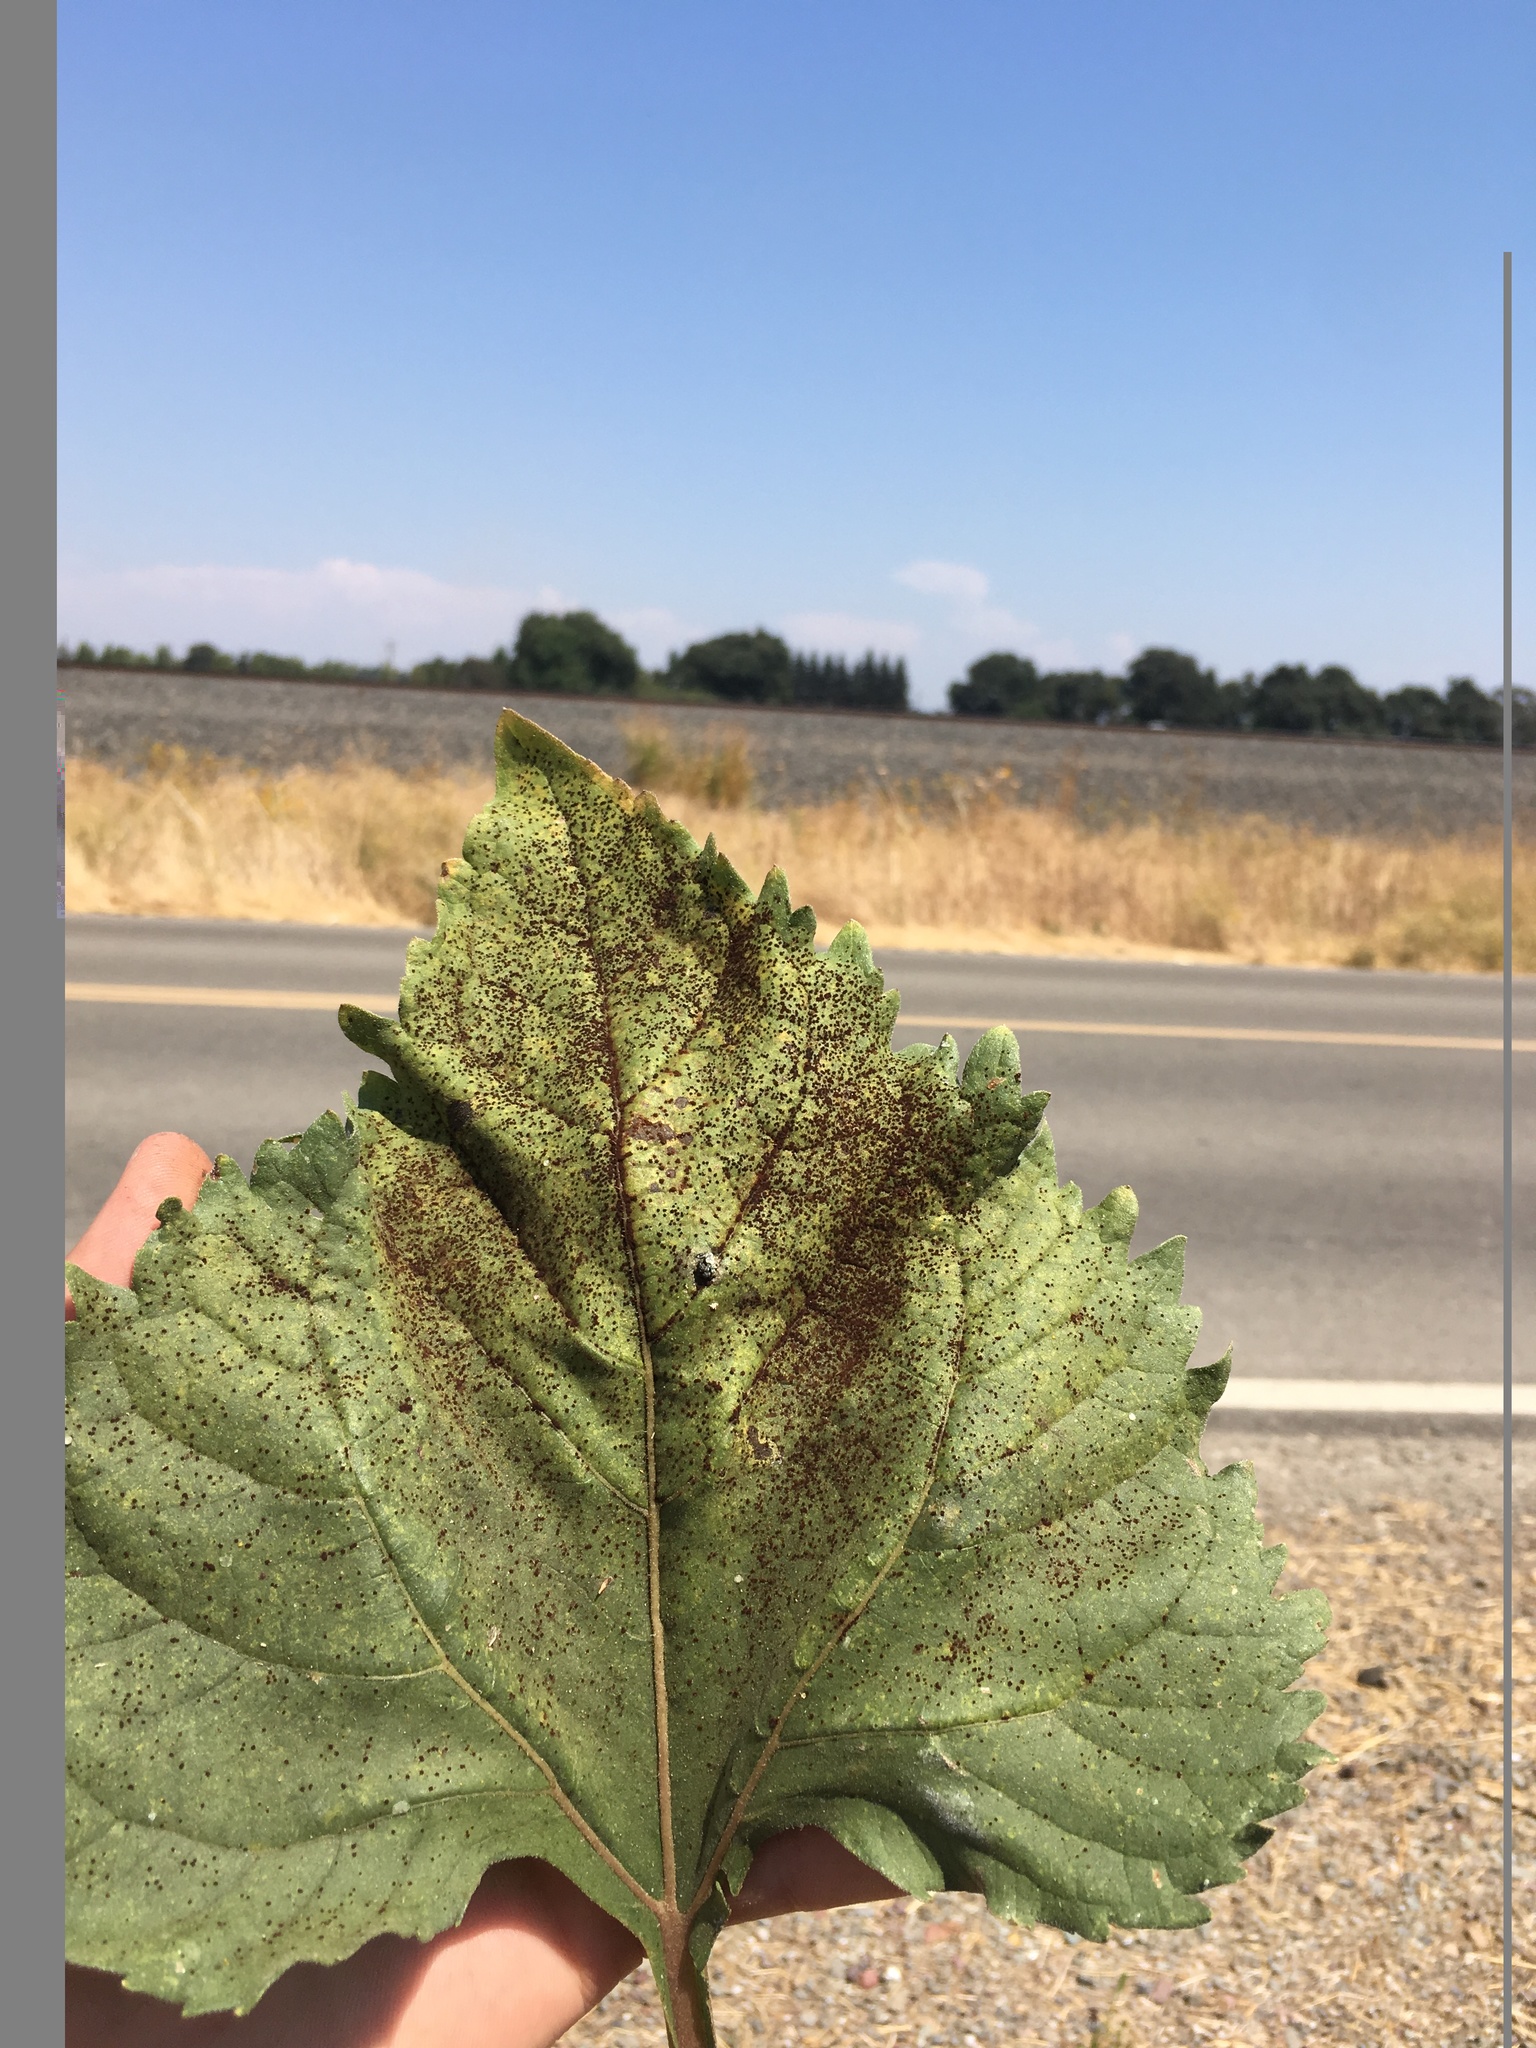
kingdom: Fungi
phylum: Basidiomycota
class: Pucciniomycetes
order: Pucciniales
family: Pucciniaceae
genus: Puccinia
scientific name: Puccinia helianthi-mollis
